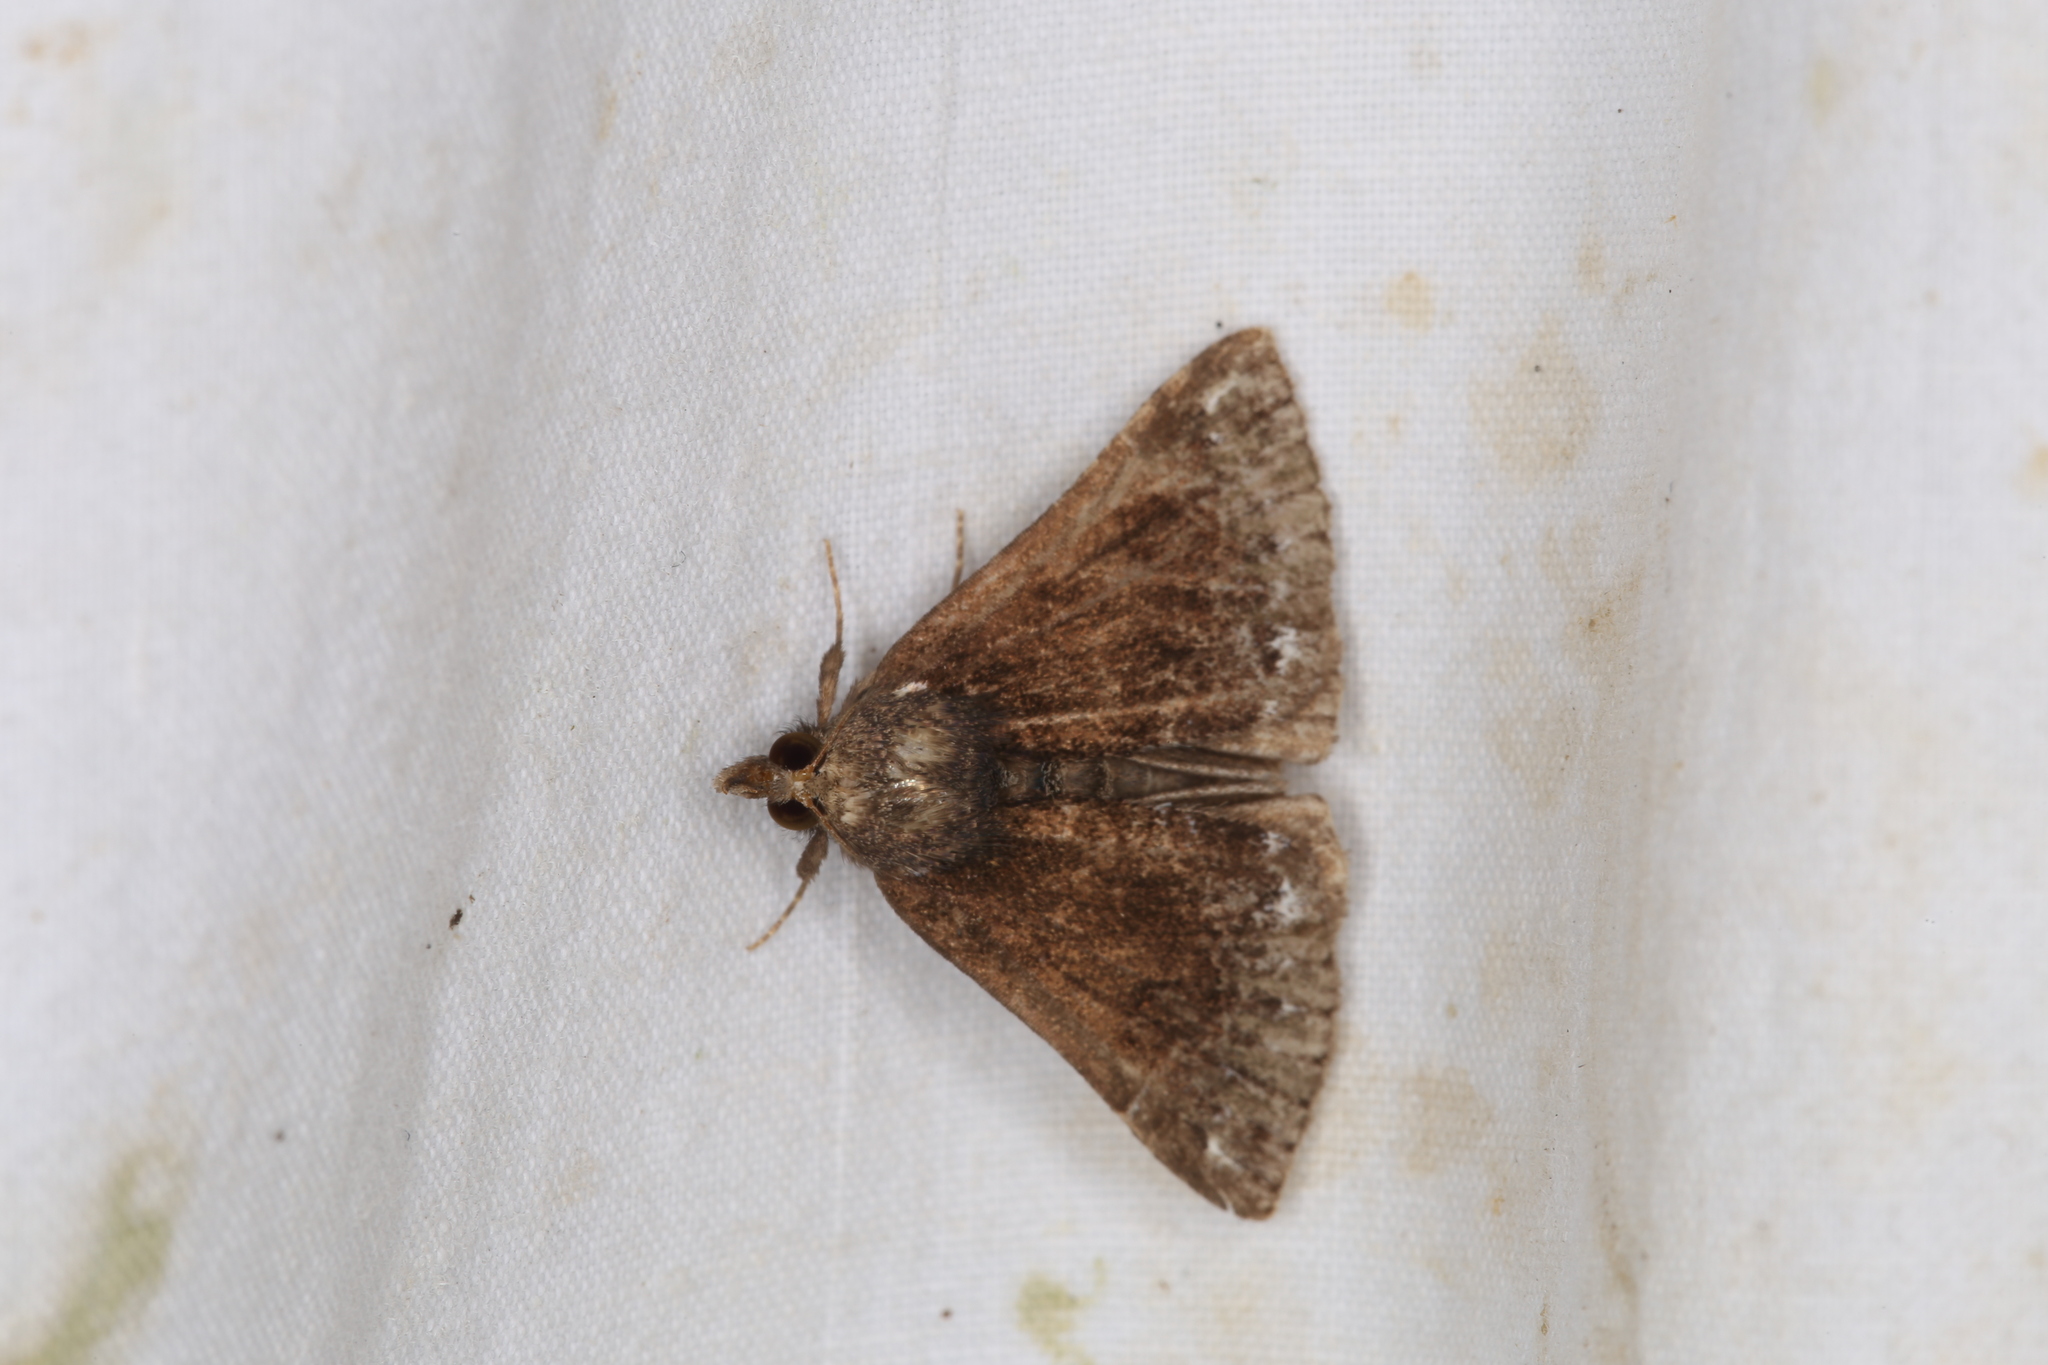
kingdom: Animalia
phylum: Arthropoda
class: Insecta
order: Lepidoptera
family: Erebidae
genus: Hypena
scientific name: Hypena crassalis
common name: Beautiful snout
